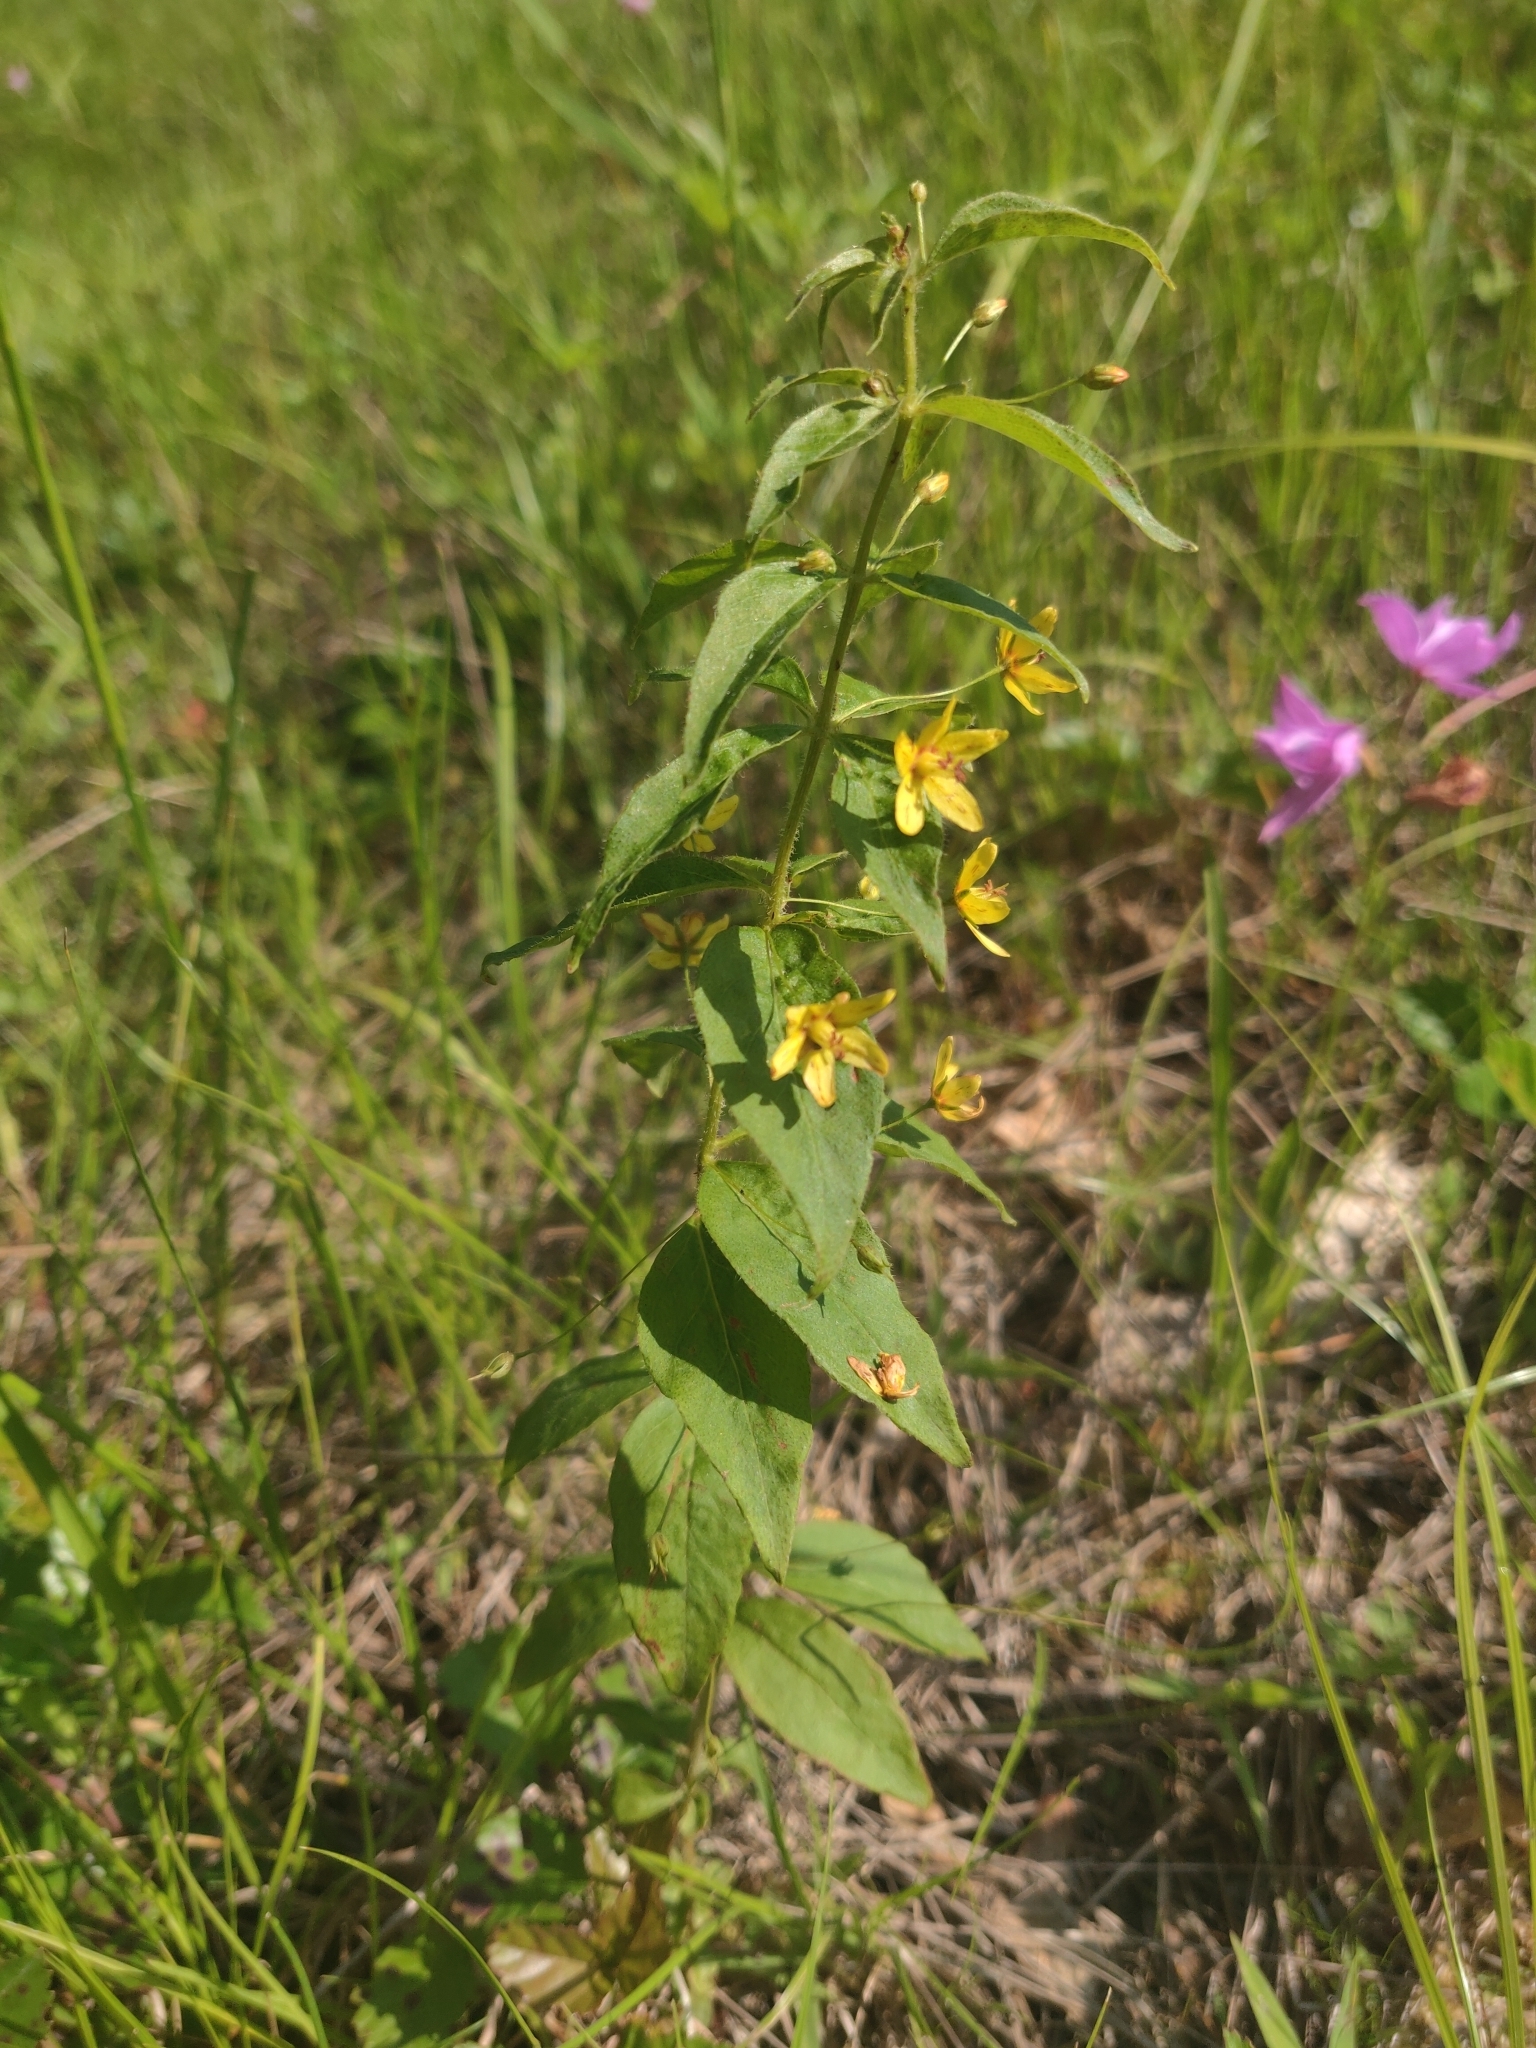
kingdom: Plantae
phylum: Tracheophyta
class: Magnoliopsida
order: Ericales
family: Primulaceae
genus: Lysimachia
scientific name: Lysimachia quadrifolia
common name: Whorled loosestrife
